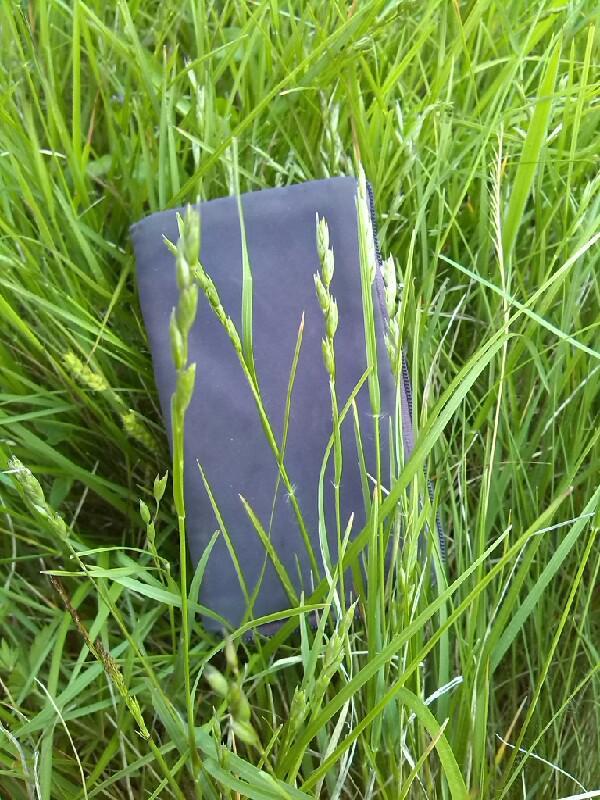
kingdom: Plantae
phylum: Tracheophyta
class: Liliopsida
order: Poales
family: Poaceae
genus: Danthonia
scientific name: Danthonia decumbens
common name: Common heathgrass
